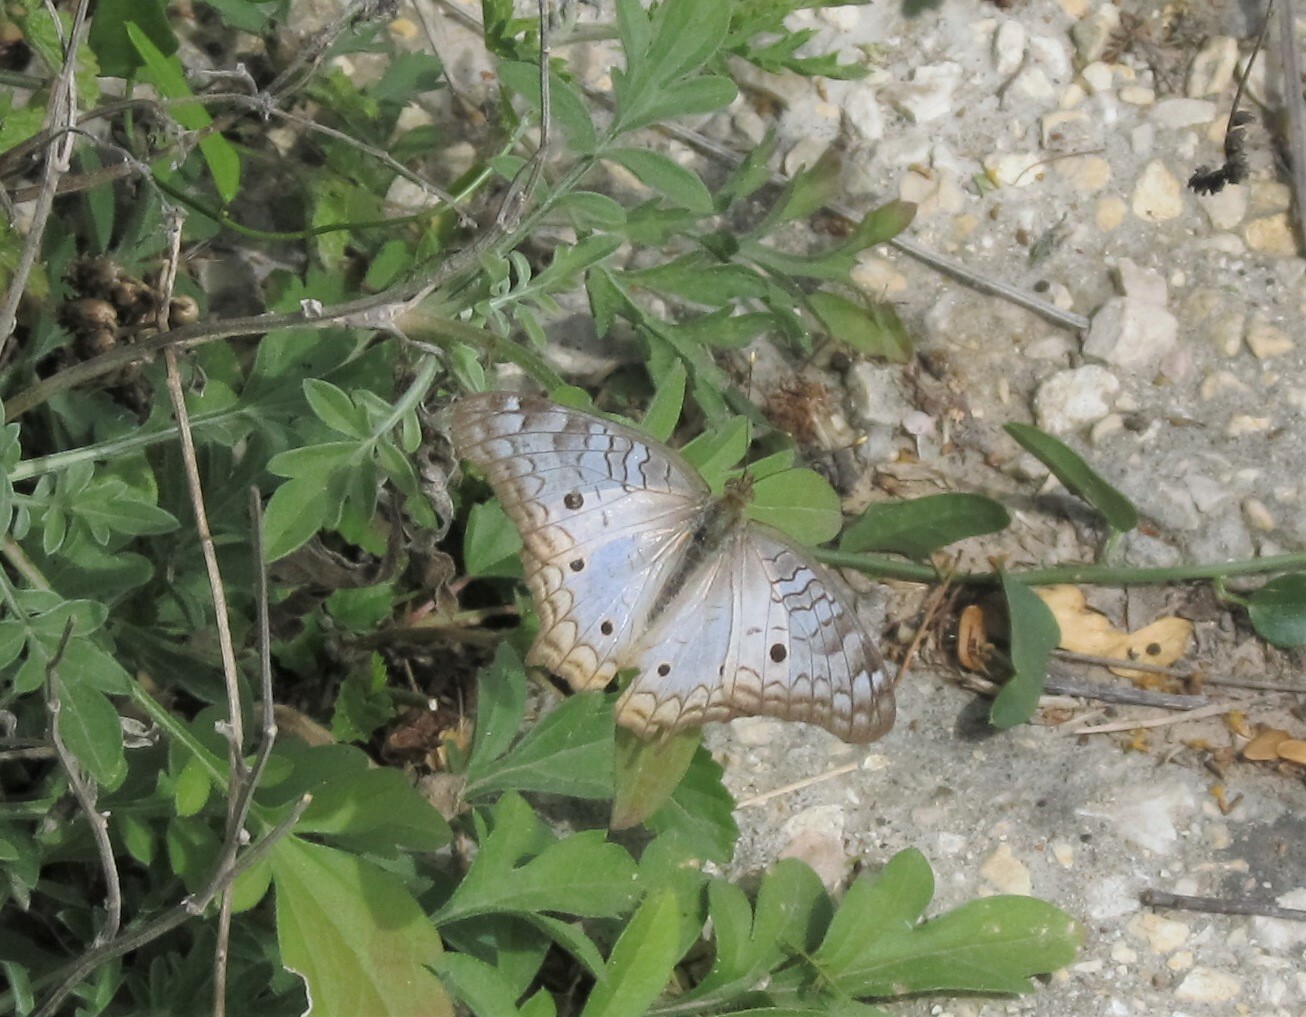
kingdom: Animalia
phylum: Arthropoda
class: Insecta
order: Lepidoptera
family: Nymphalidae
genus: Anartia
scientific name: Anartia jatrophae
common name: White peacock
